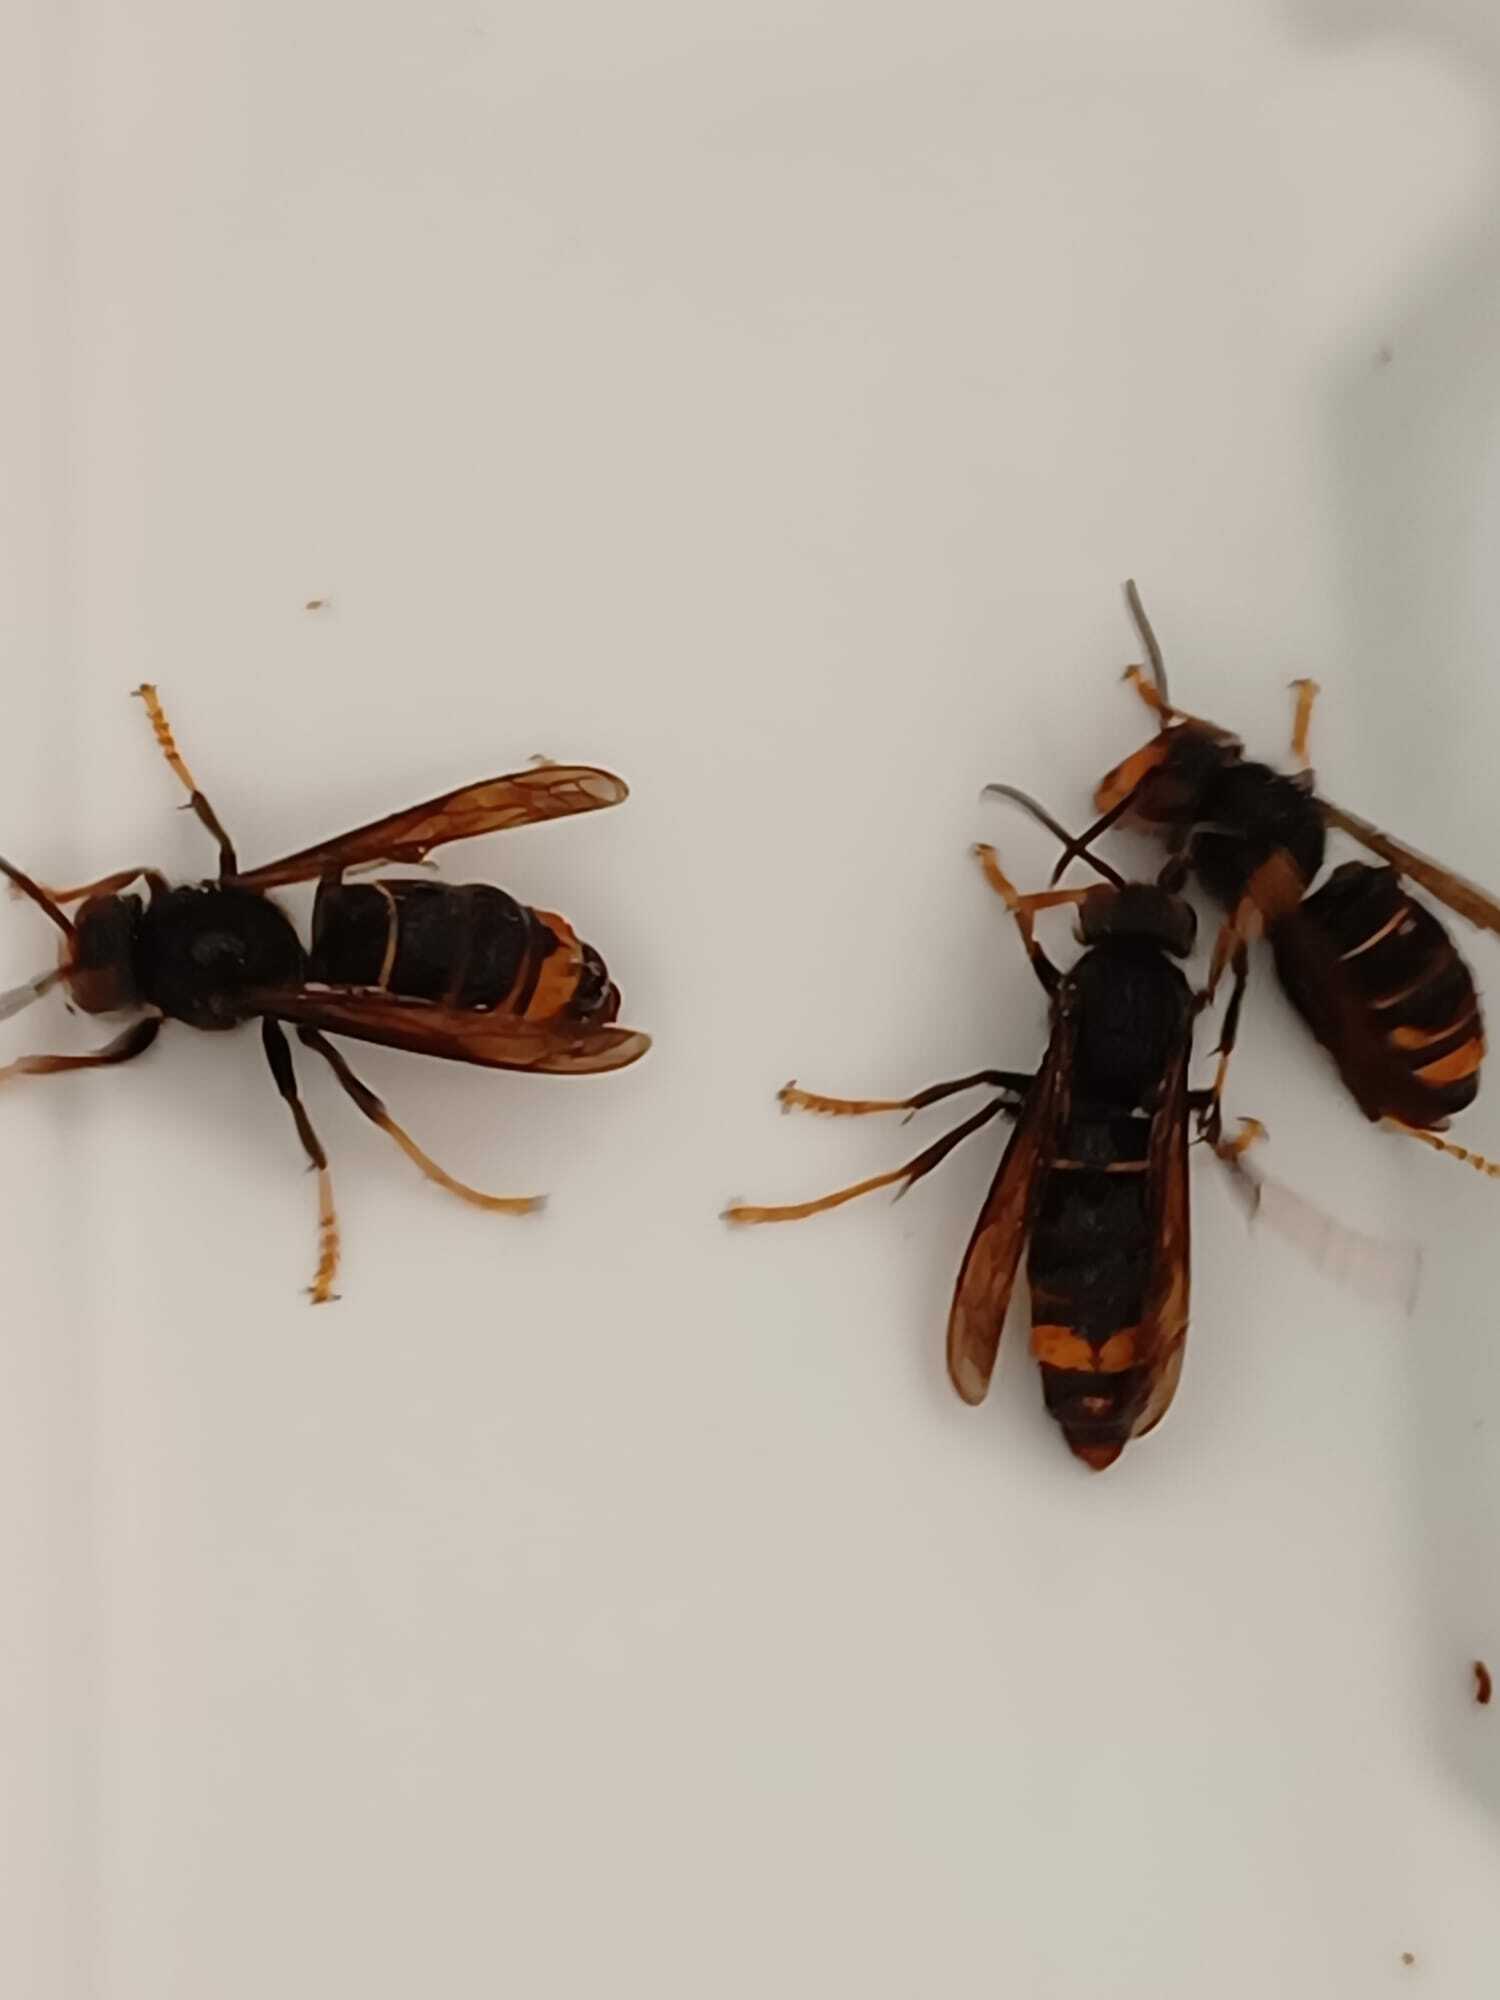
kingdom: Animalia
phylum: Arthropoda
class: Insecta
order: Hymenoptera
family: Vespidae
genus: Vespa
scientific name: Vespa velutina
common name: Asian hornet
